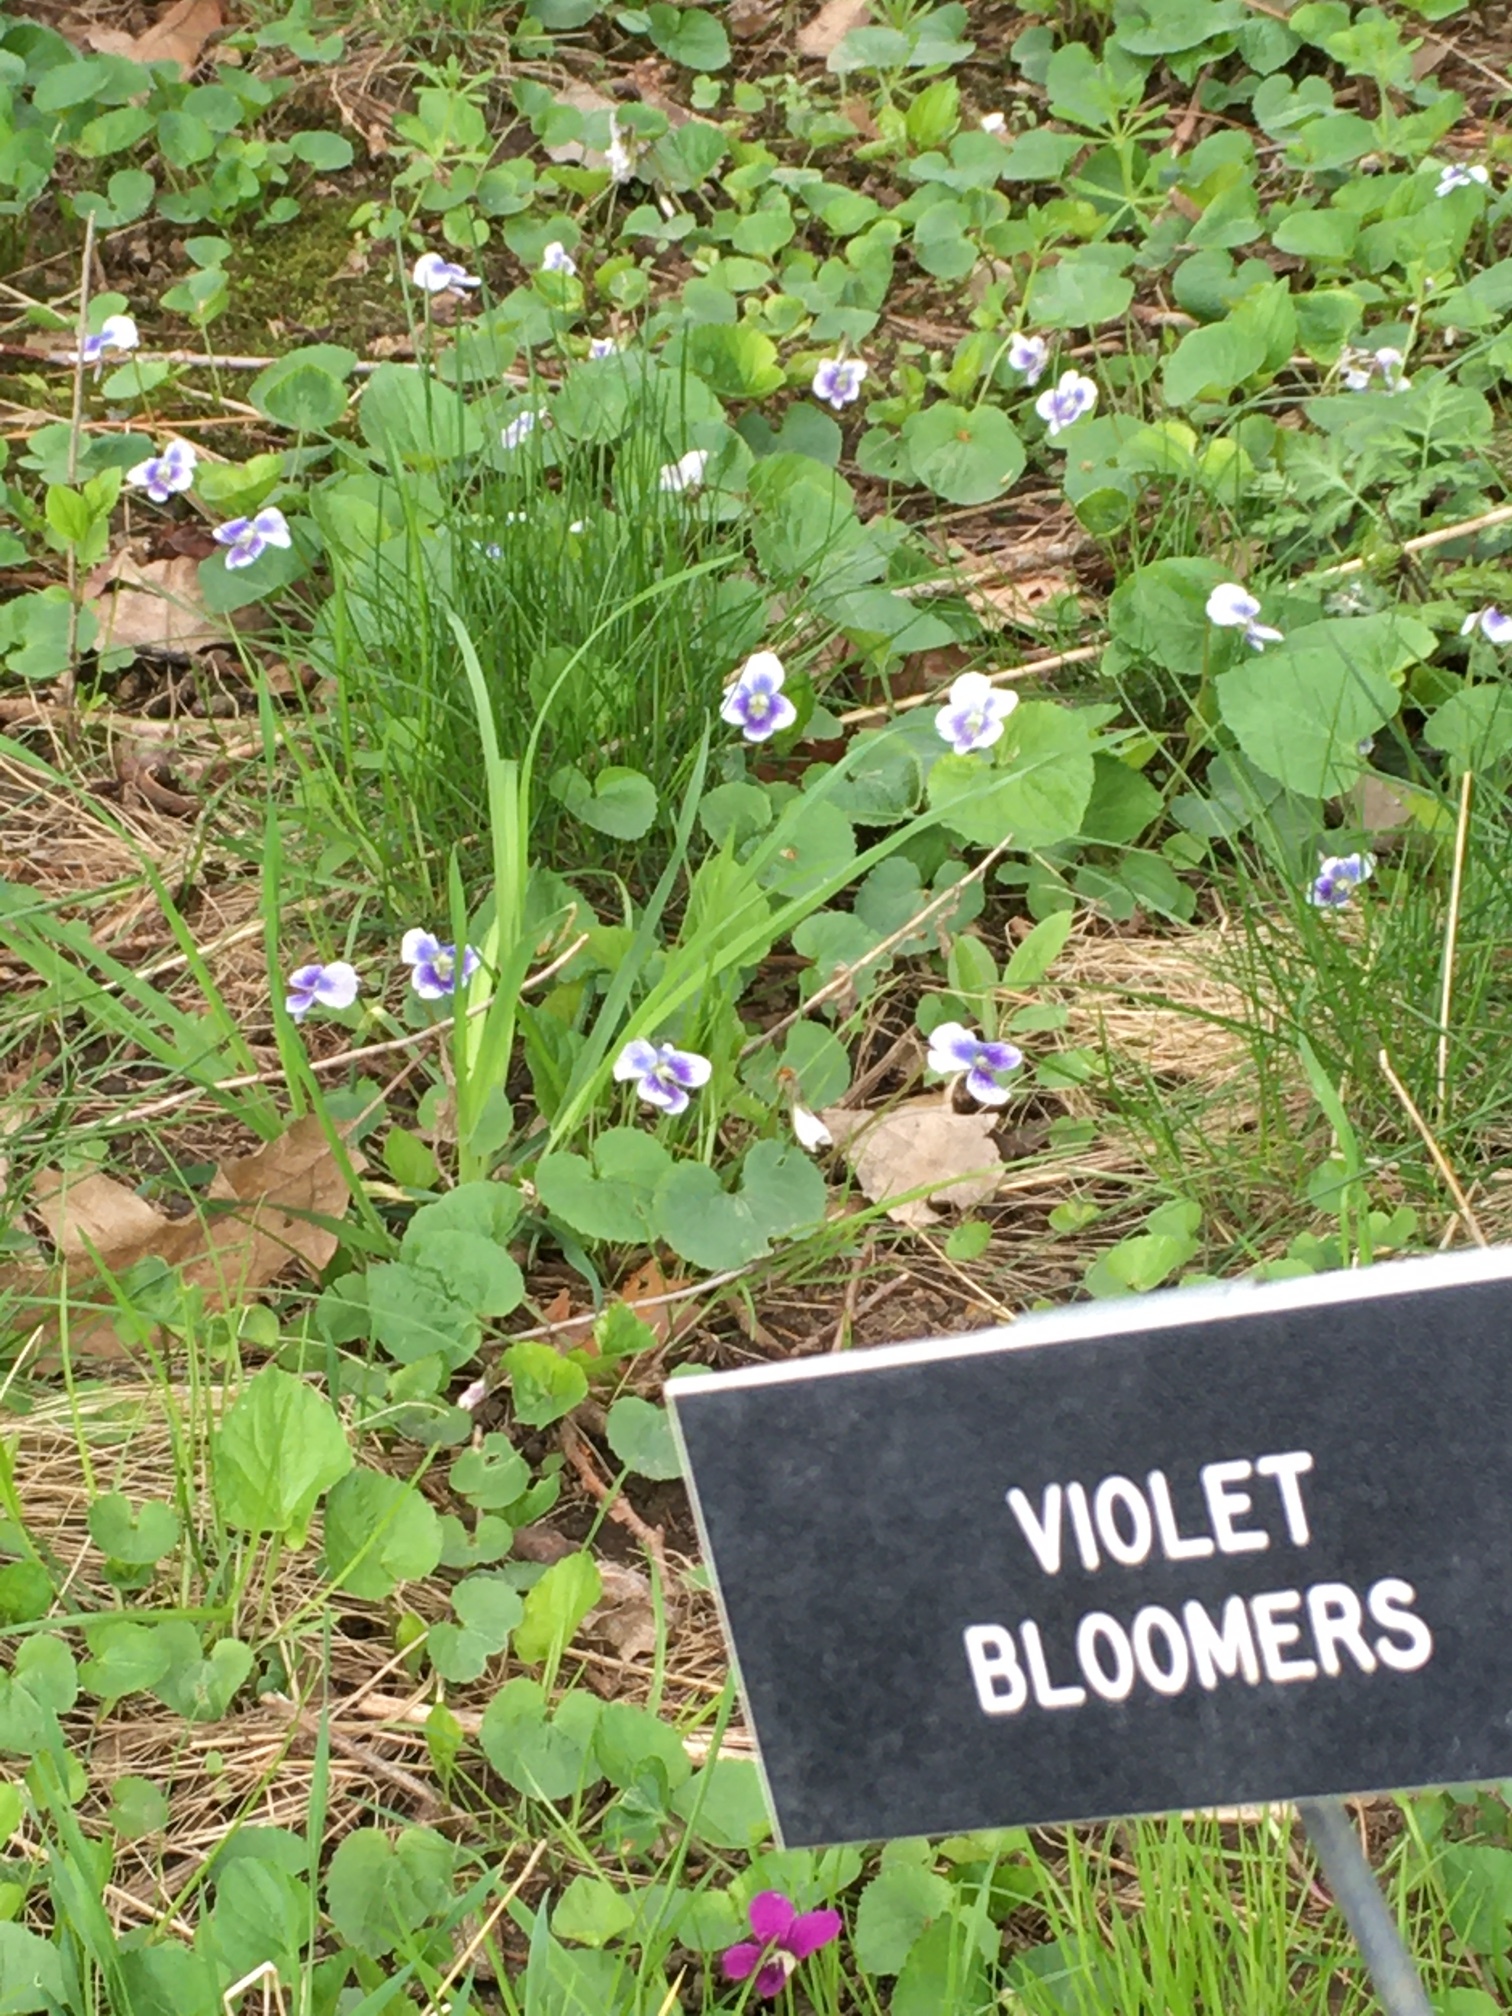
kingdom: Plantae
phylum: Tracheophyta
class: Magnoliopsida
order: Malpighiales
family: Violaceae
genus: Viola
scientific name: Viola sororia
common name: Dooryard violet
